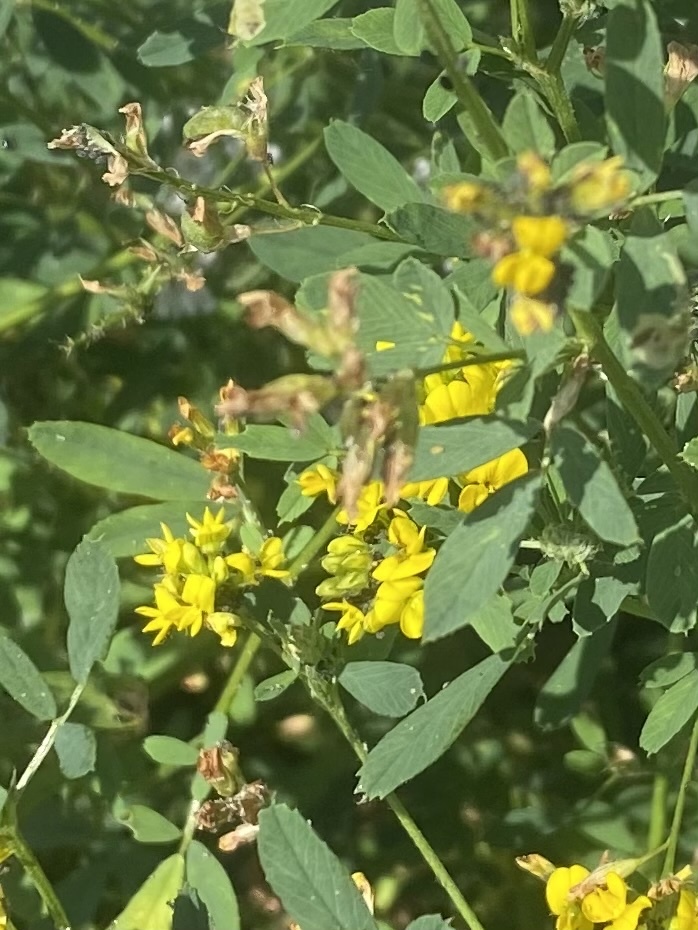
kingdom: Plantae
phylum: Tracheophyta
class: Magnoliopsida
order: Fabales
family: Fabaceae
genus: Medicago
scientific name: Medicago
